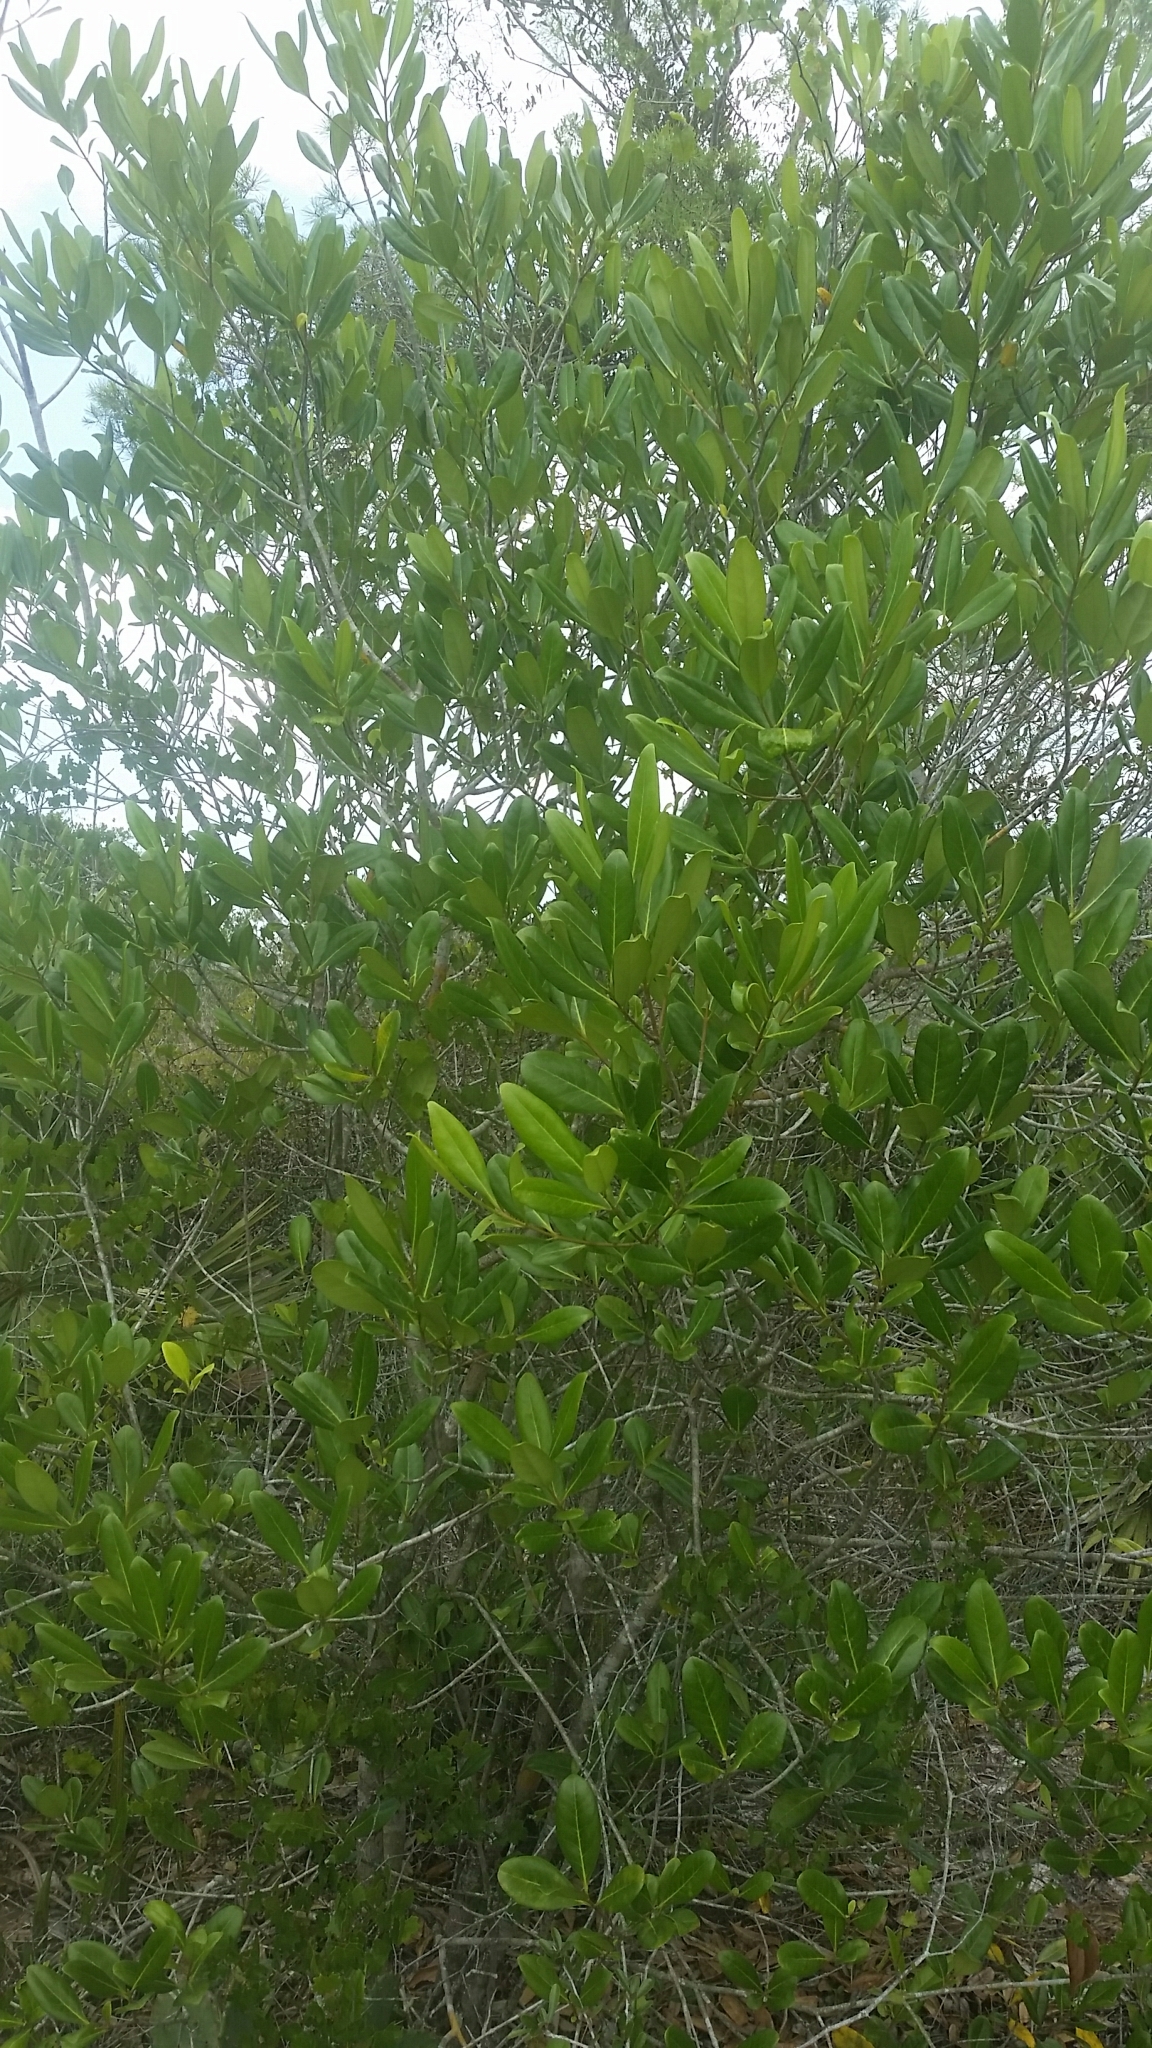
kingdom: Plantae
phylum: Tracheophyta
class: Magnoliopsida
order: Lamiales
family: Oleaceae
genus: Cartrema
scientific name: Cartrema floridana
